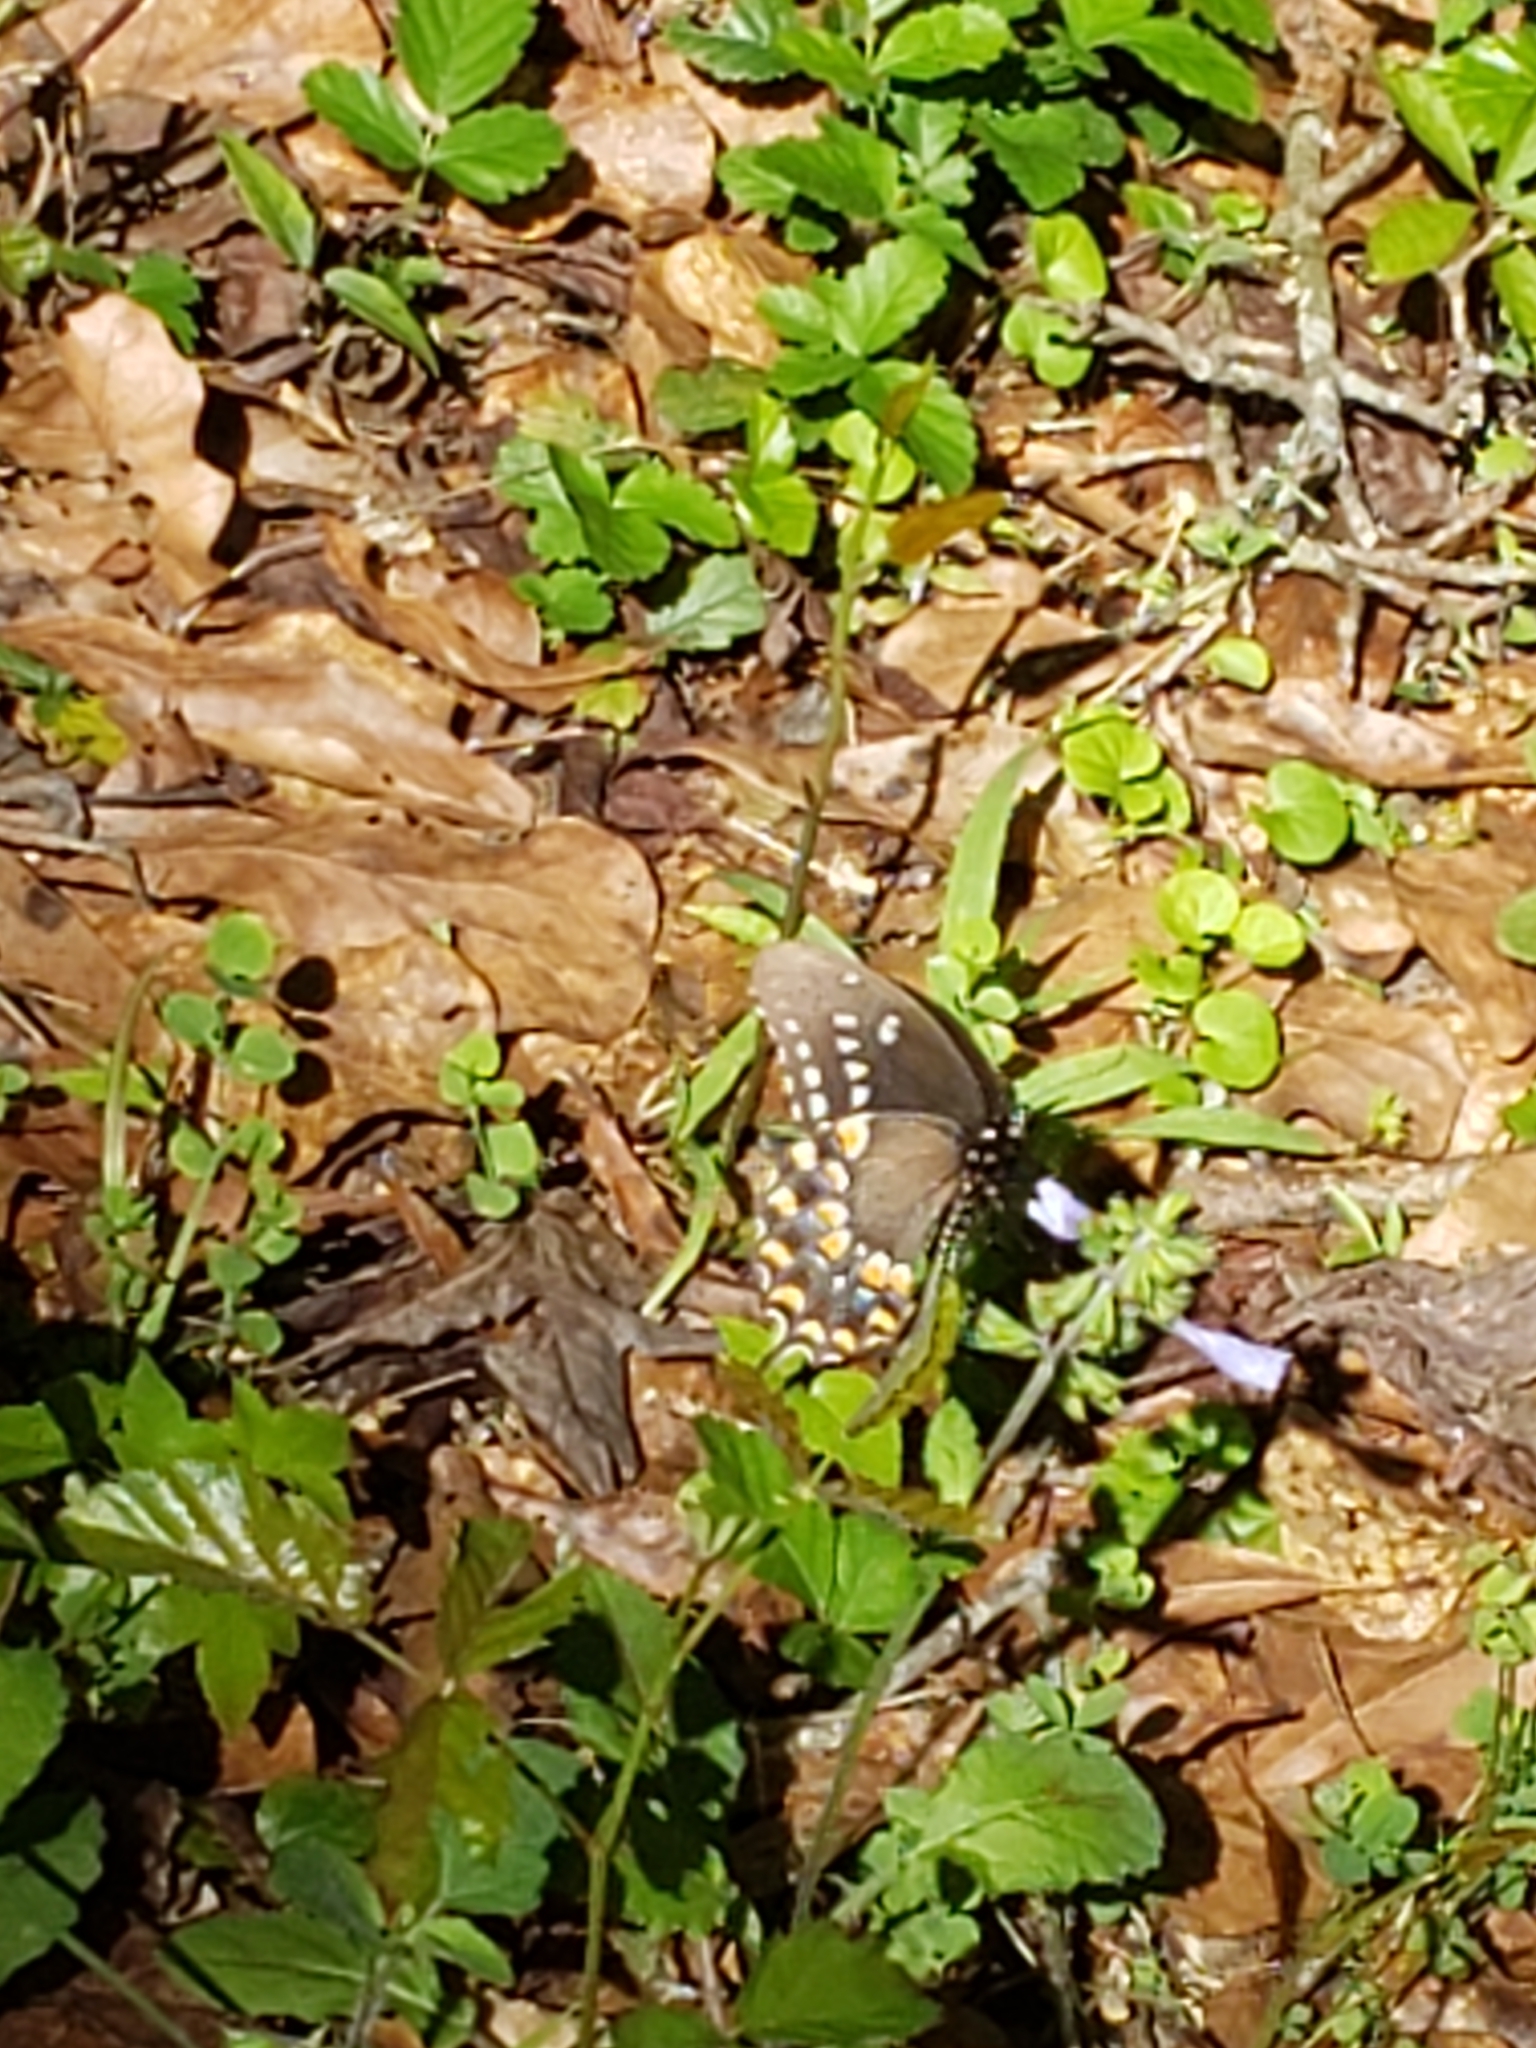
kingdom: Animalia
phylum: Arthropoda
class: Insecta
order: Lepidoptera
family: Papilionidae
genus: Papilio
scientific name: Papilio troilus
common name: Spicebush swallowtail
